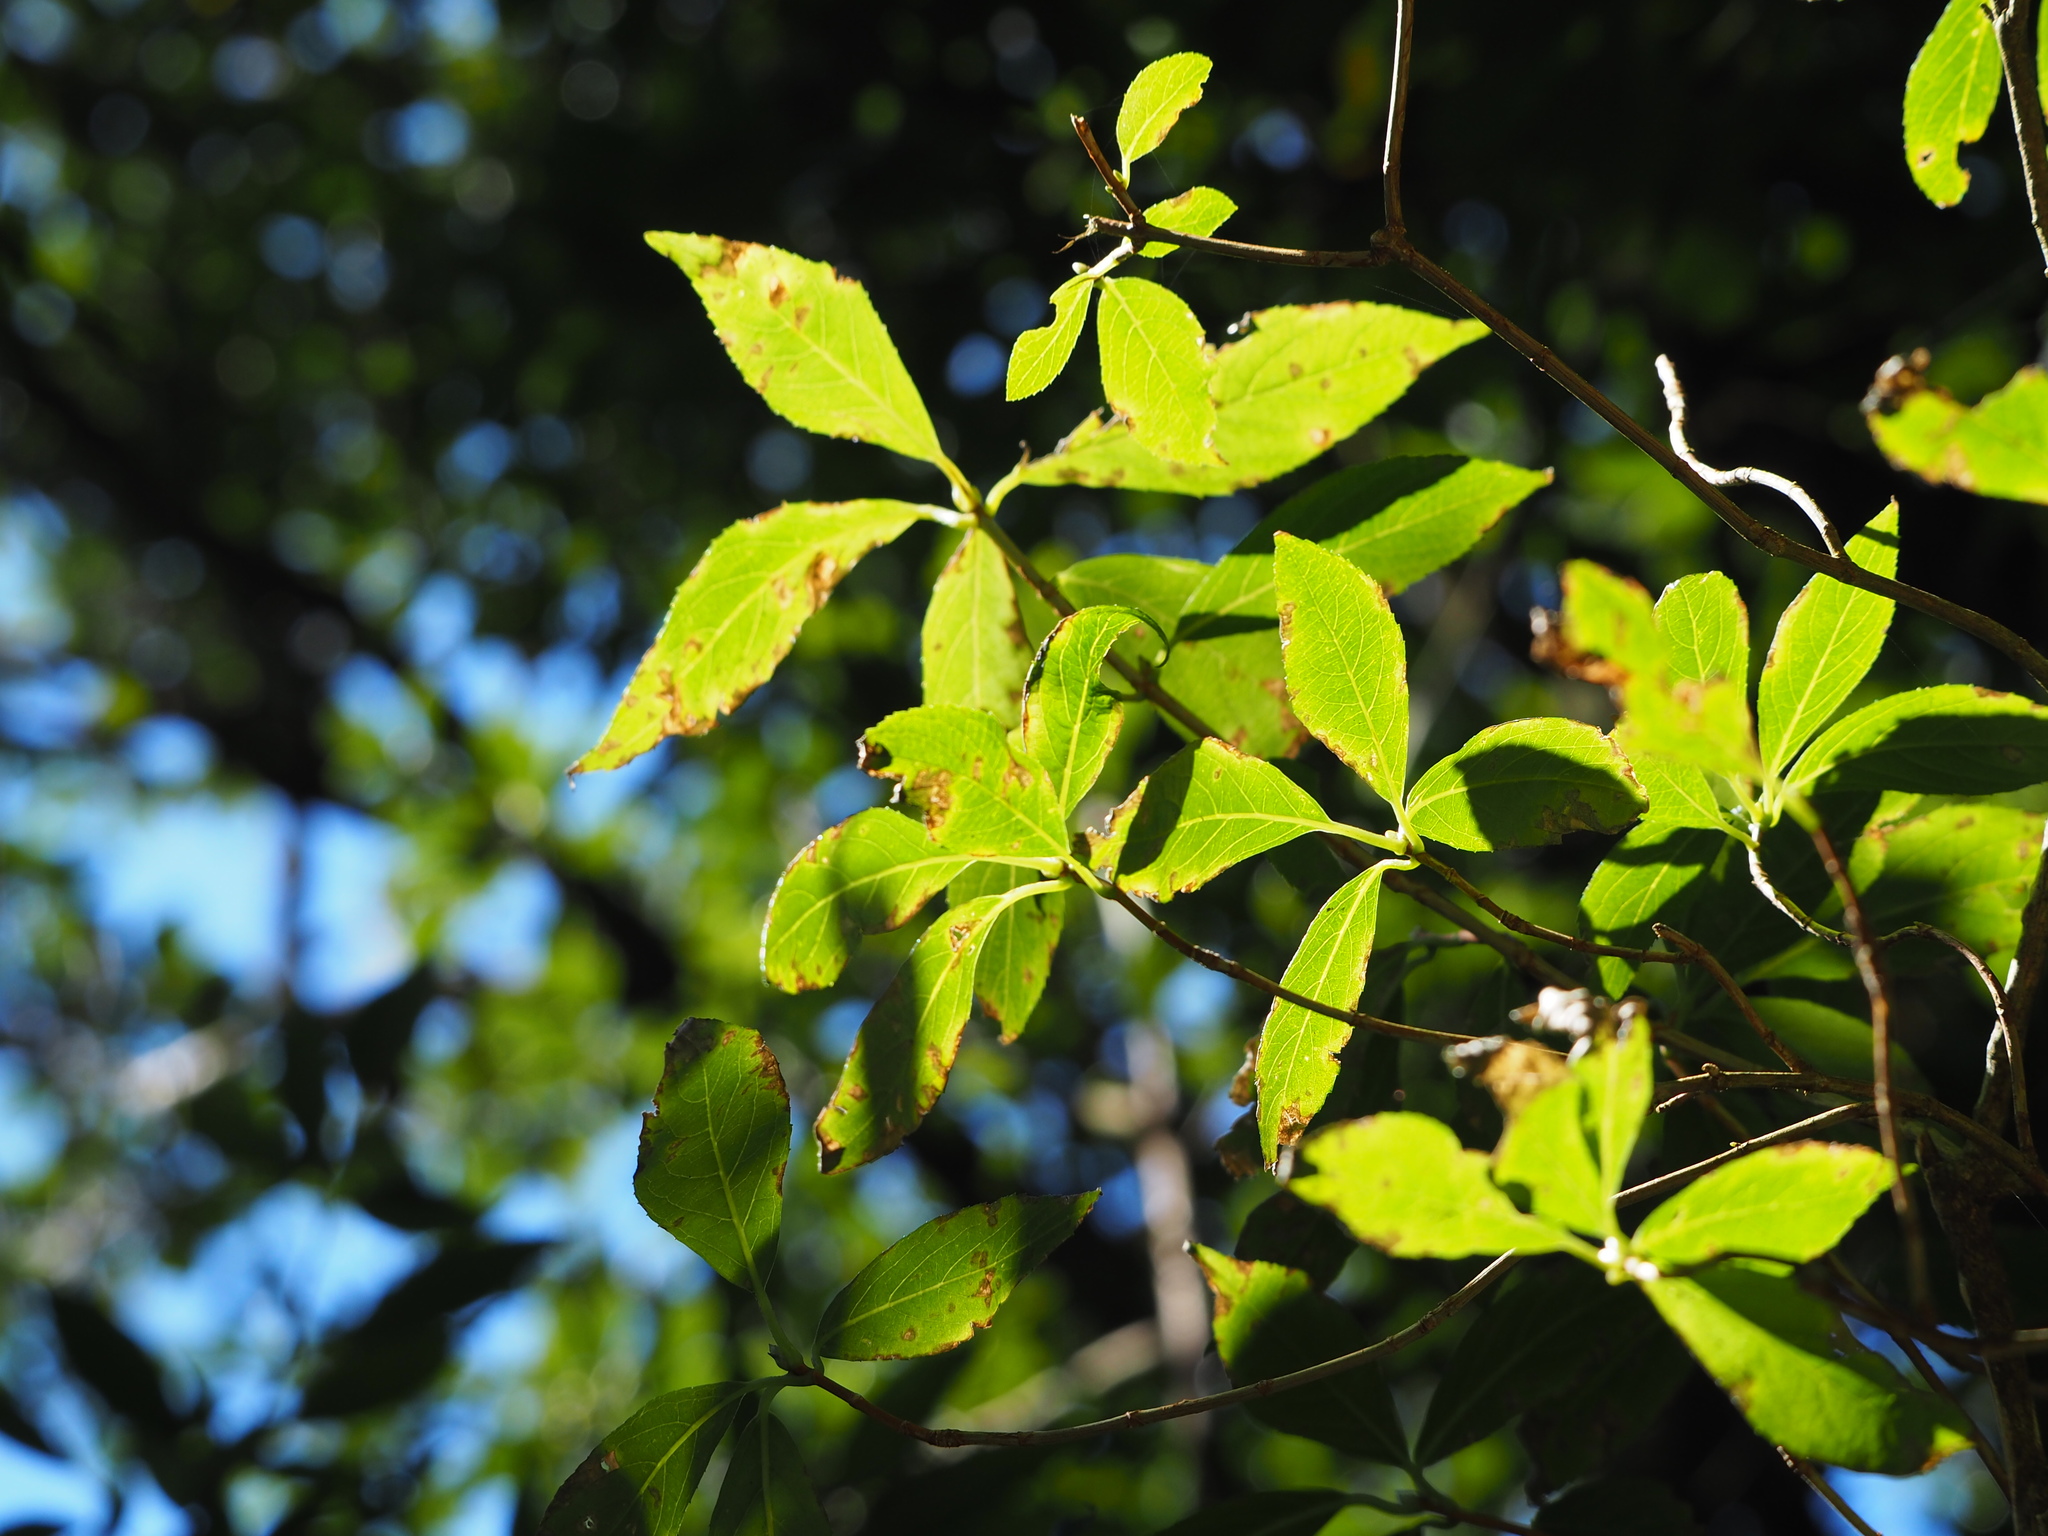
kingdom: Plantae
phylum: Tracheophyta
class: Magnoliopsida
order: Cornales
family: Hydrangeaceae
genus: Hydrangea
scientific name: Hydrangea chinensis
